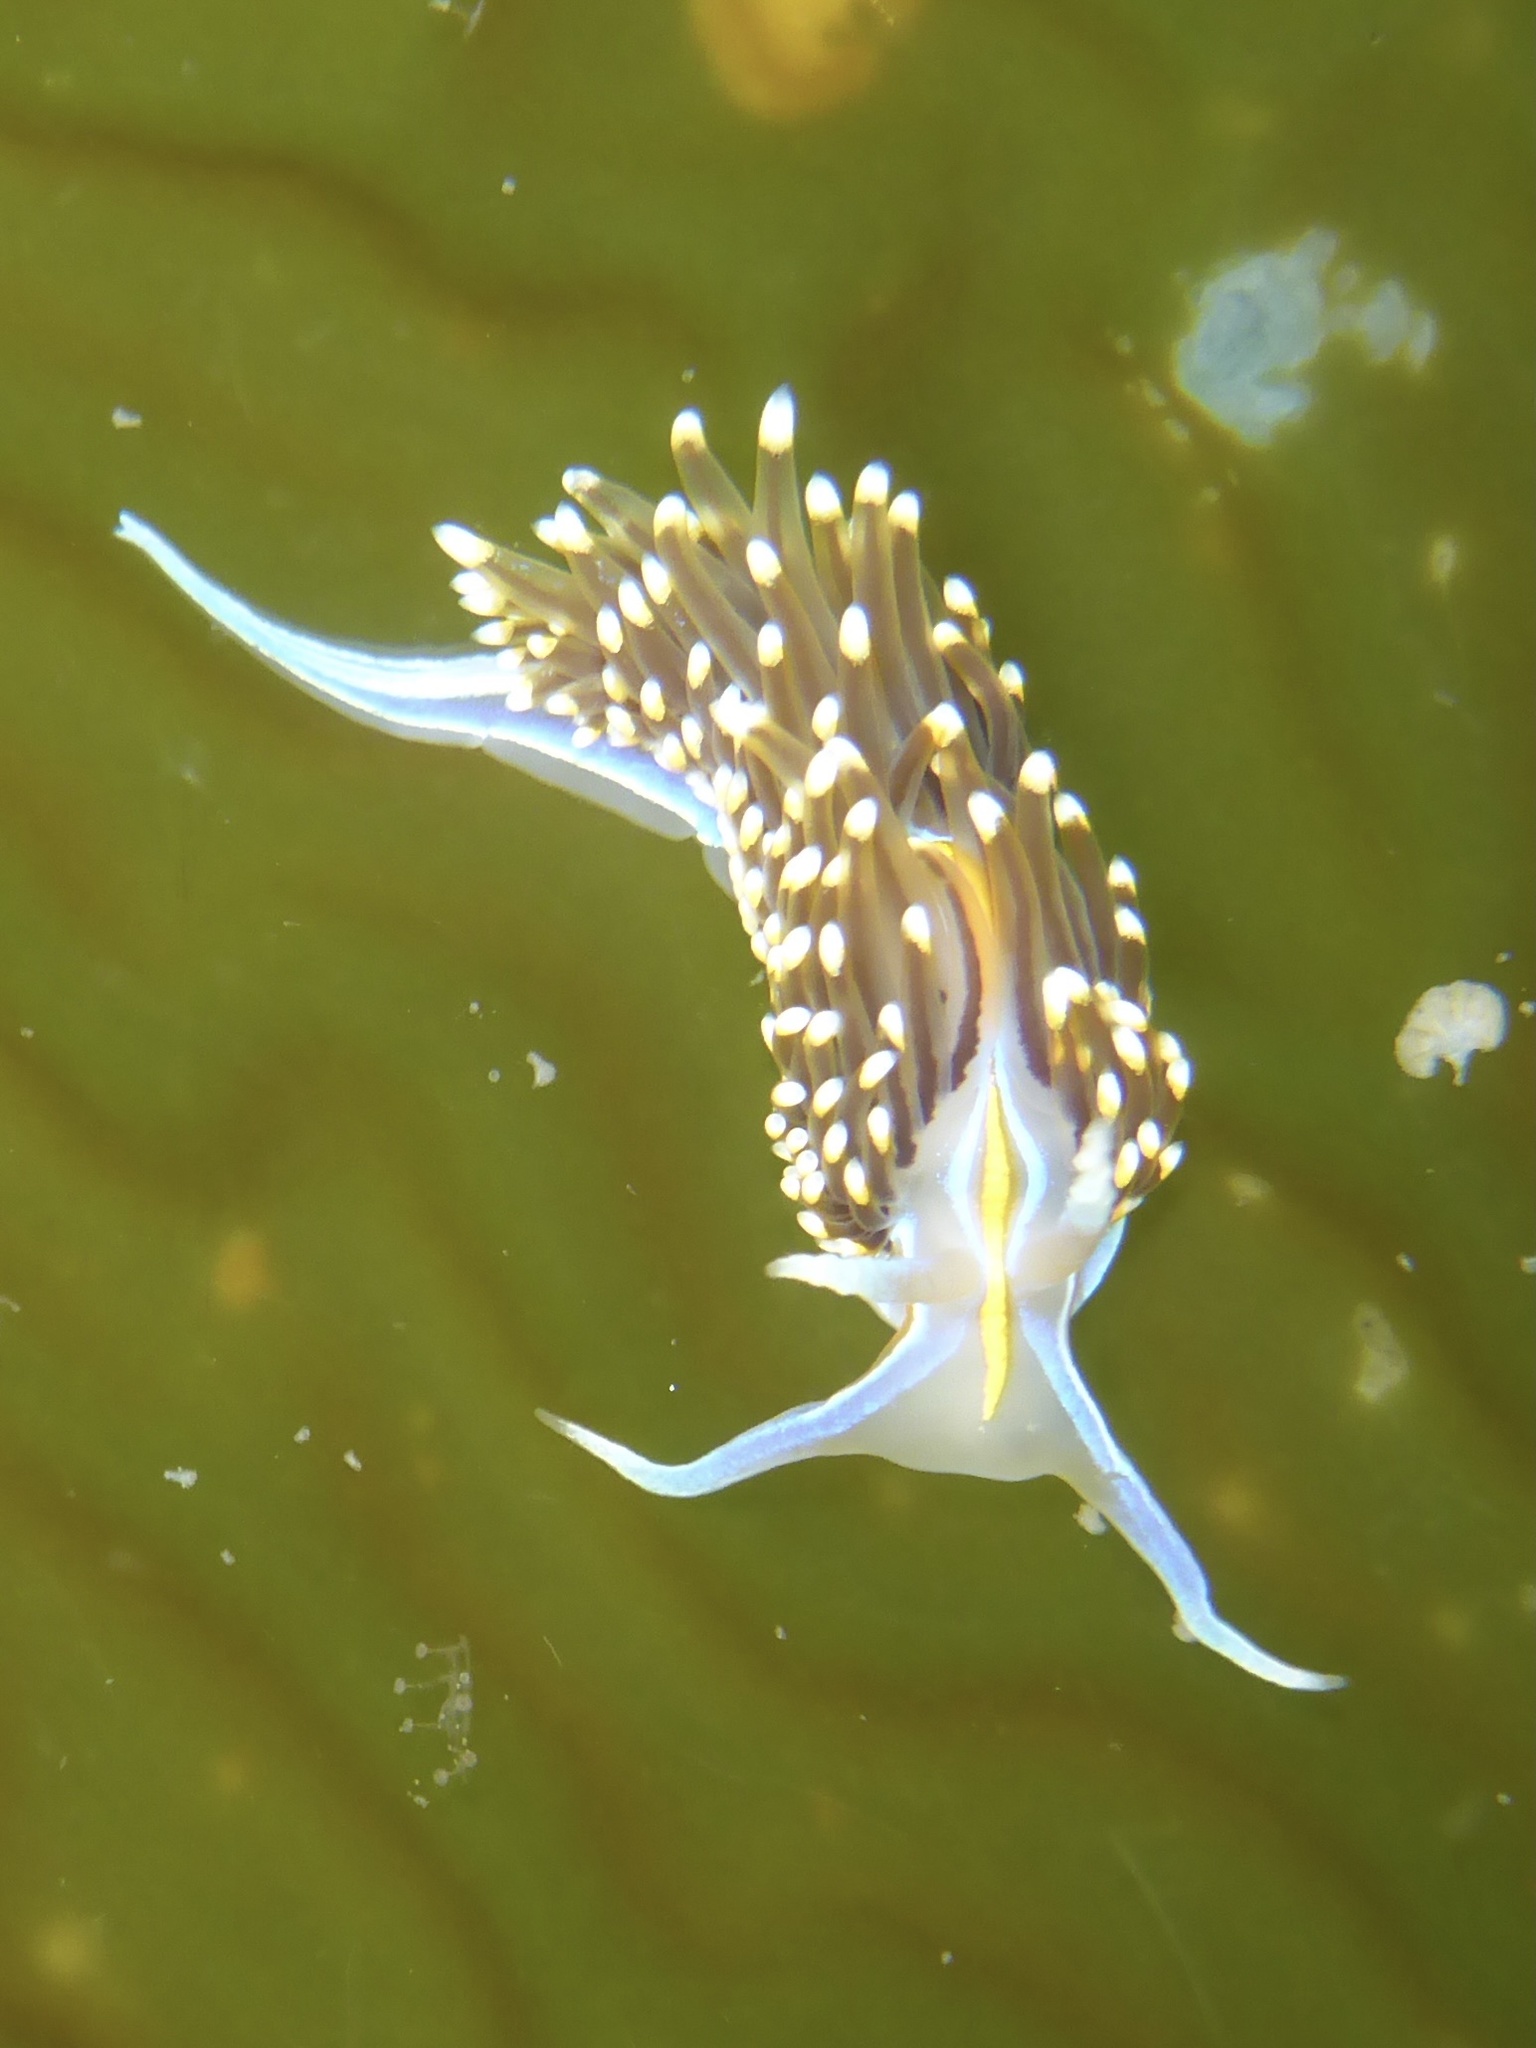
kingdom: Animalia
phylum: Mollusca
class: Gastropoda
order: Nudibranchia
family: Myrrhinidae
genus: Hermissenda
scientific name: Hermissenda opalescens
